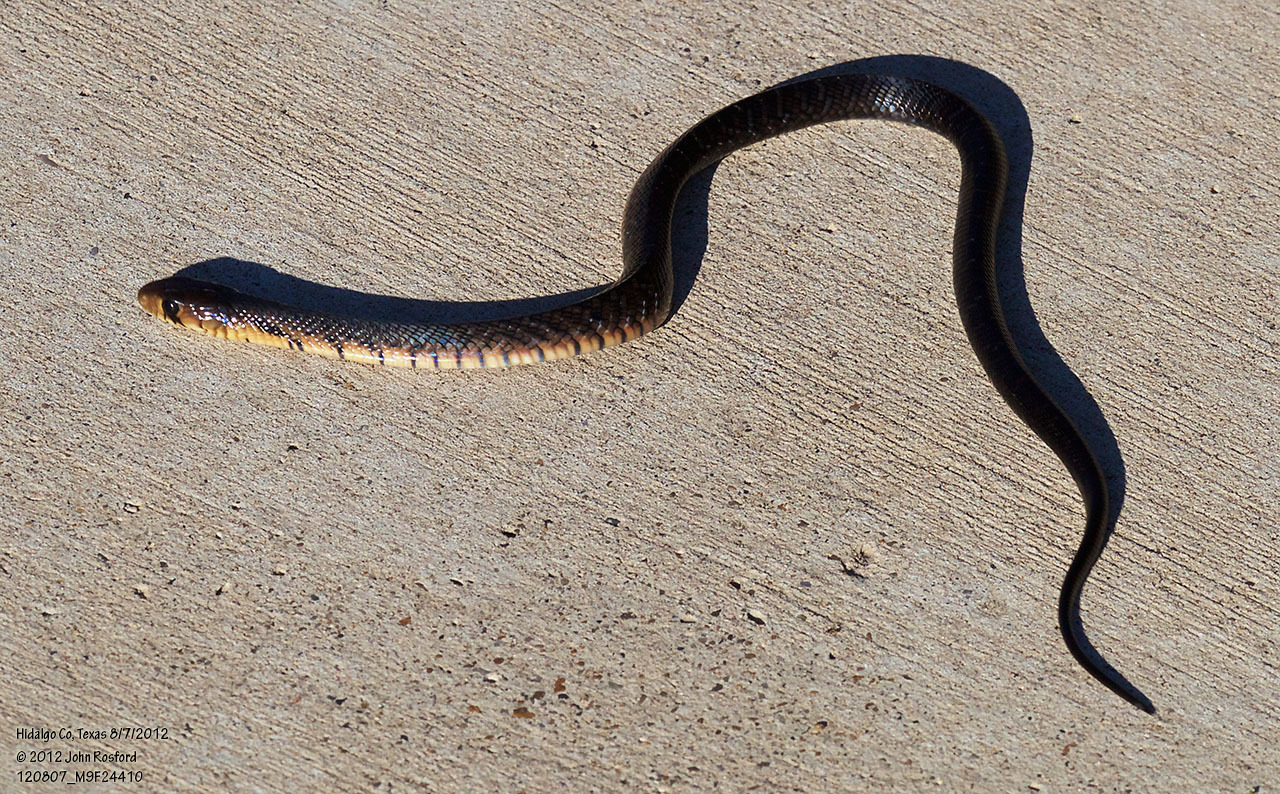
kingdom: Animalia
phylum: Chordata
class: Squamata
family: Colubridae
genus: Drymarchon
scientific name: Drymarchon melanurus
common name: Central american indigo snake
